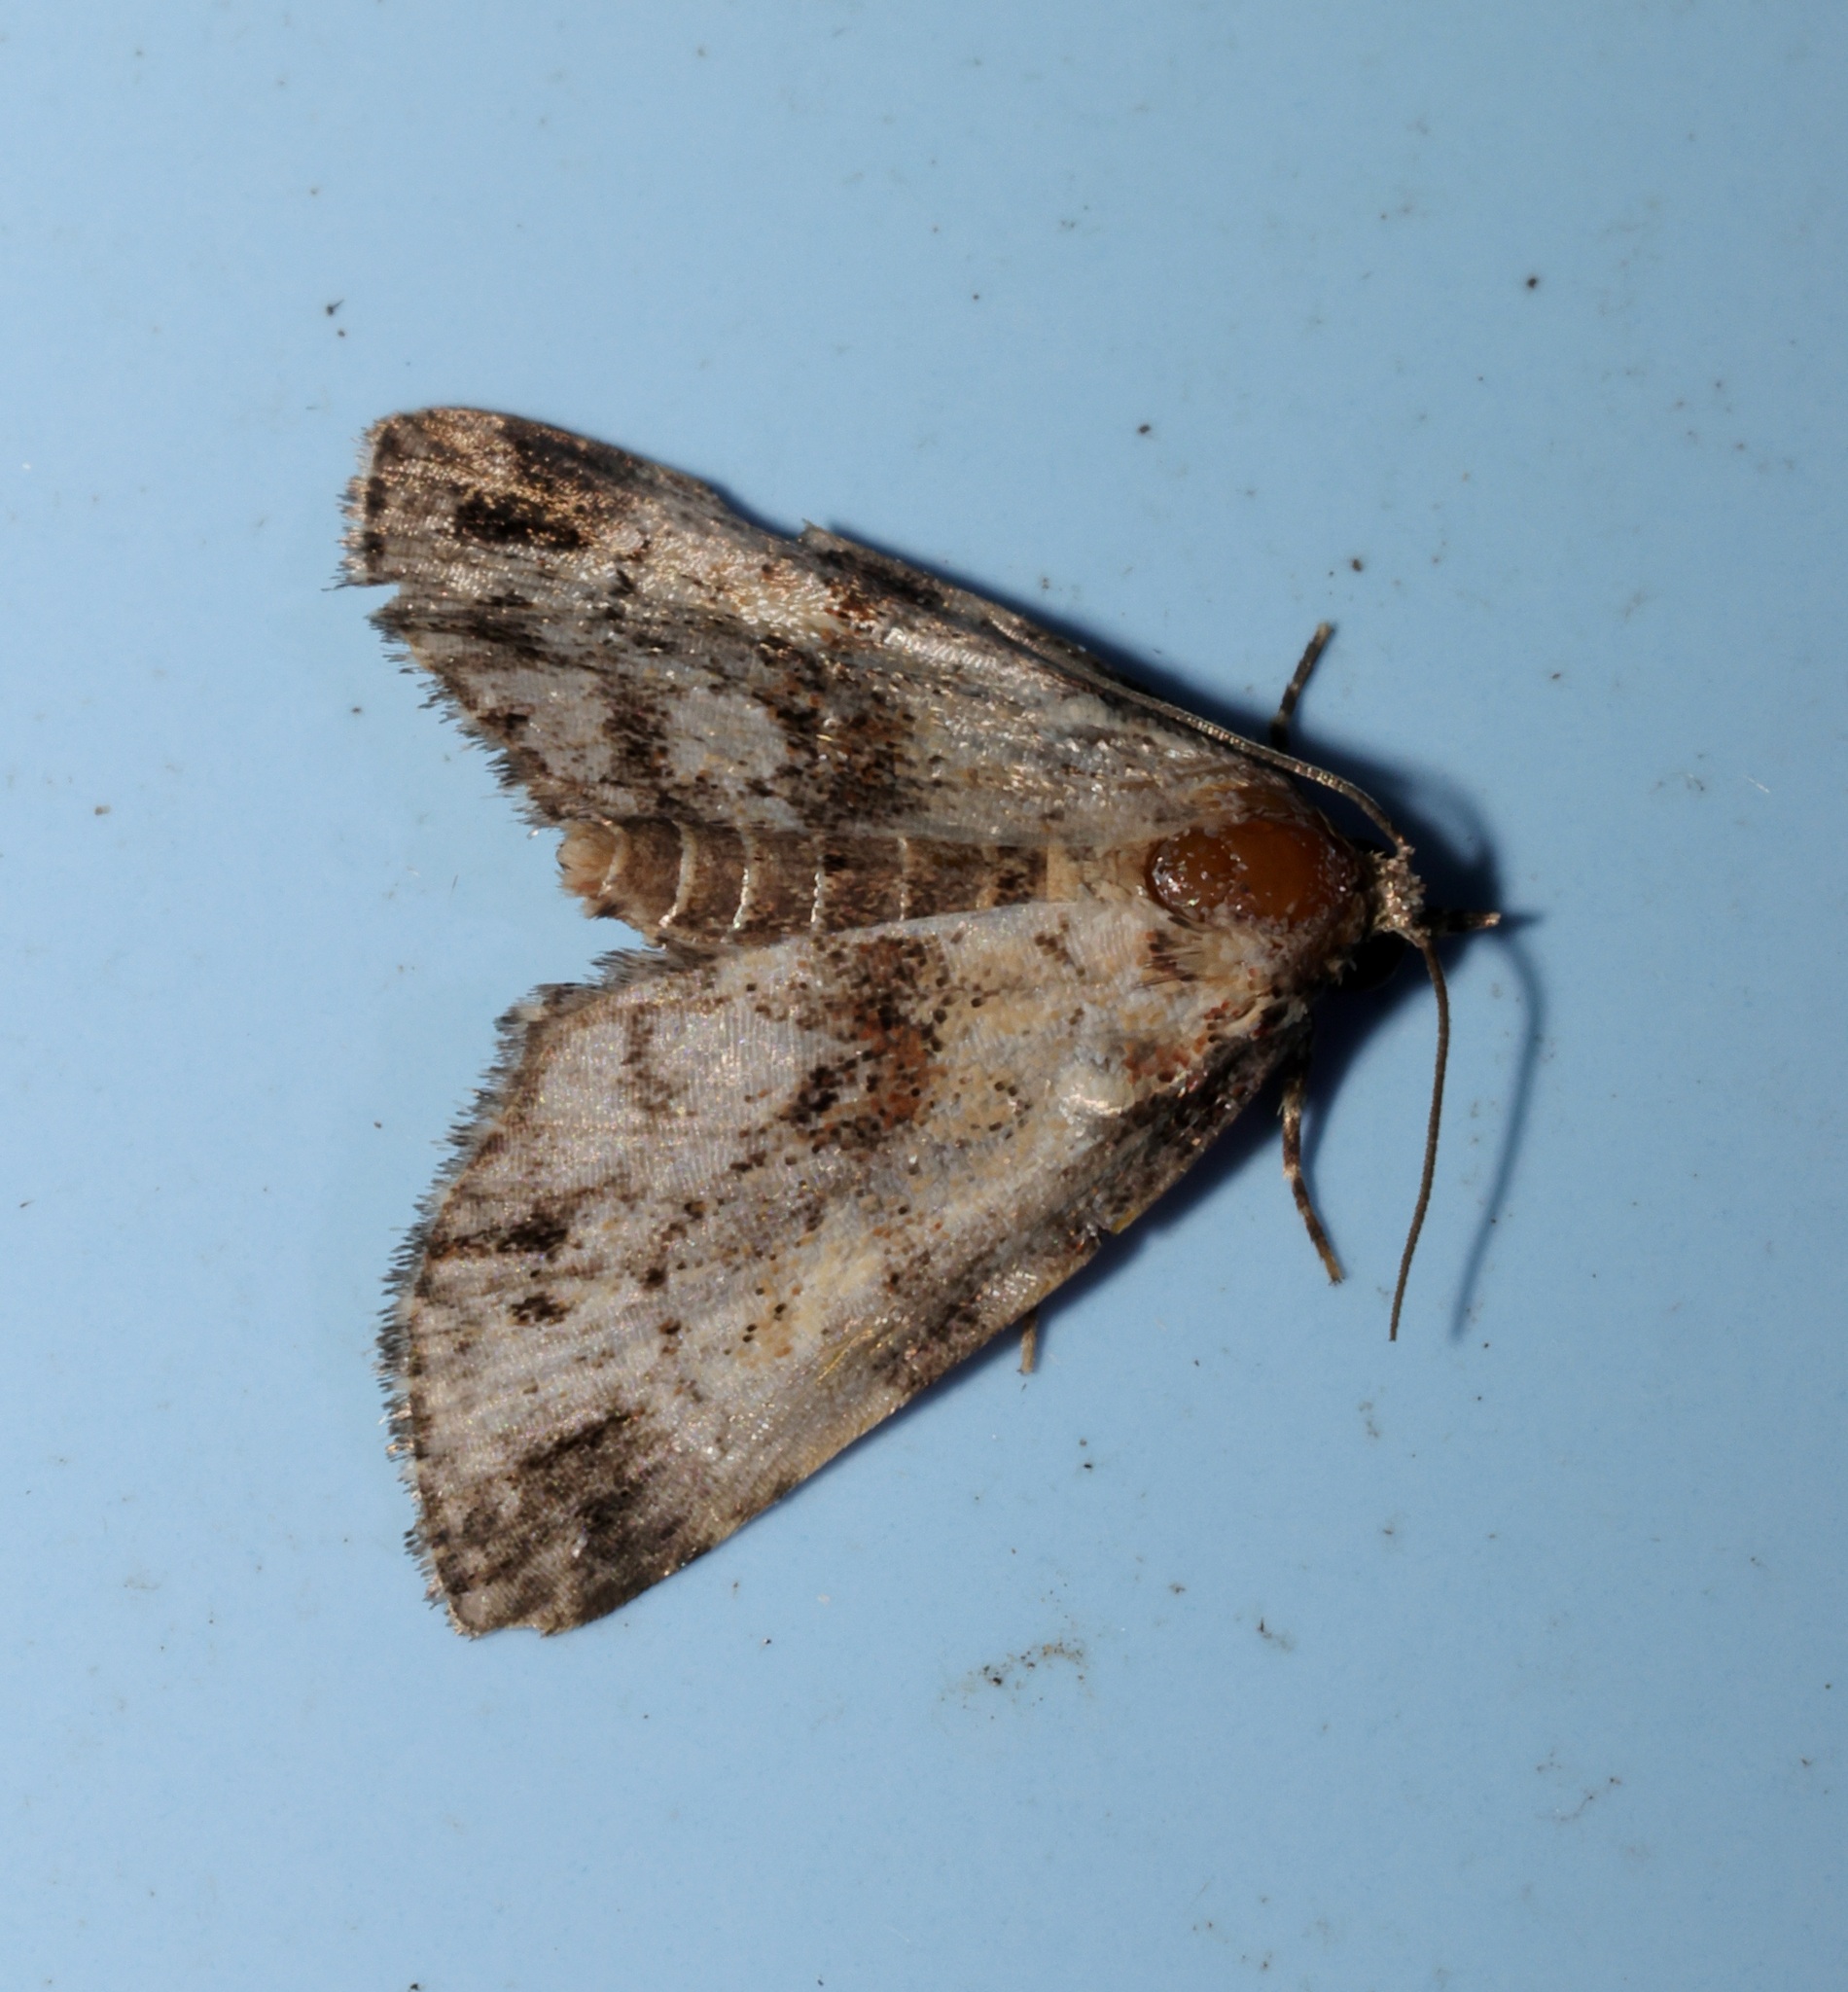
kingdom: Animalia
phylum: Arthropoda
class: Insecta
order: Lepidoptera
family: Noctuidae
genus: Lithacodia
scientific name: Lithacodia crotopha
